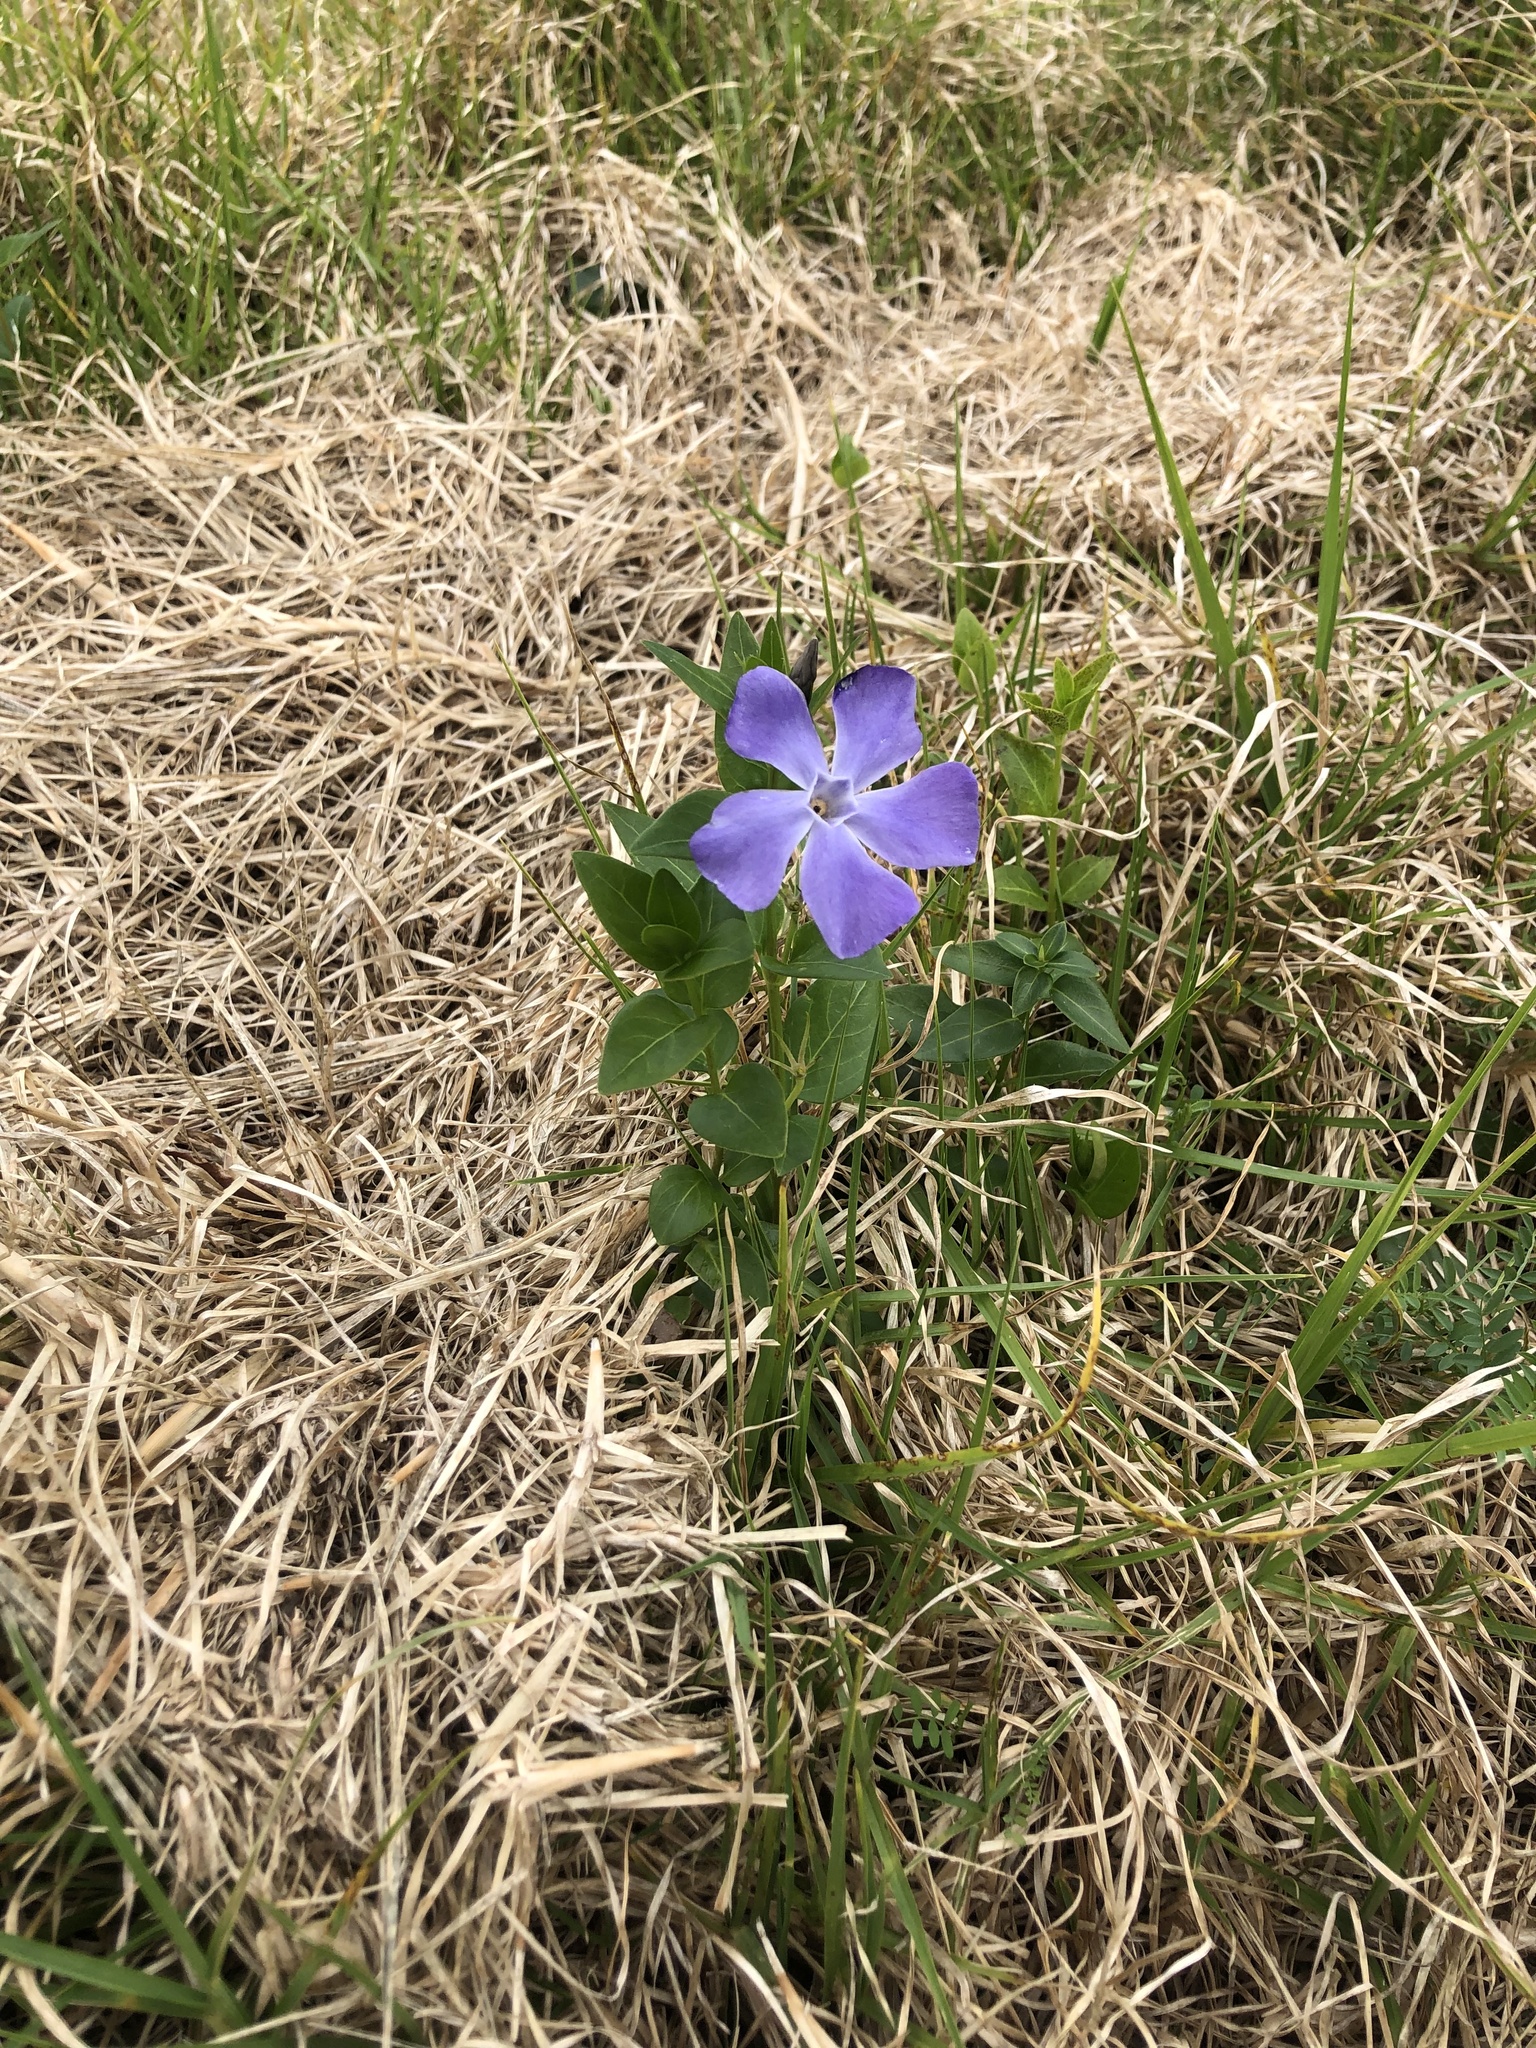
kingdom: Plantae
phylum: Tracheophyta
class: Magnoliopsida
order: Gentianales
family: Apocynaceae
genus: Vinca
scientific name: Vinca major
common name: Greater periwinkle
